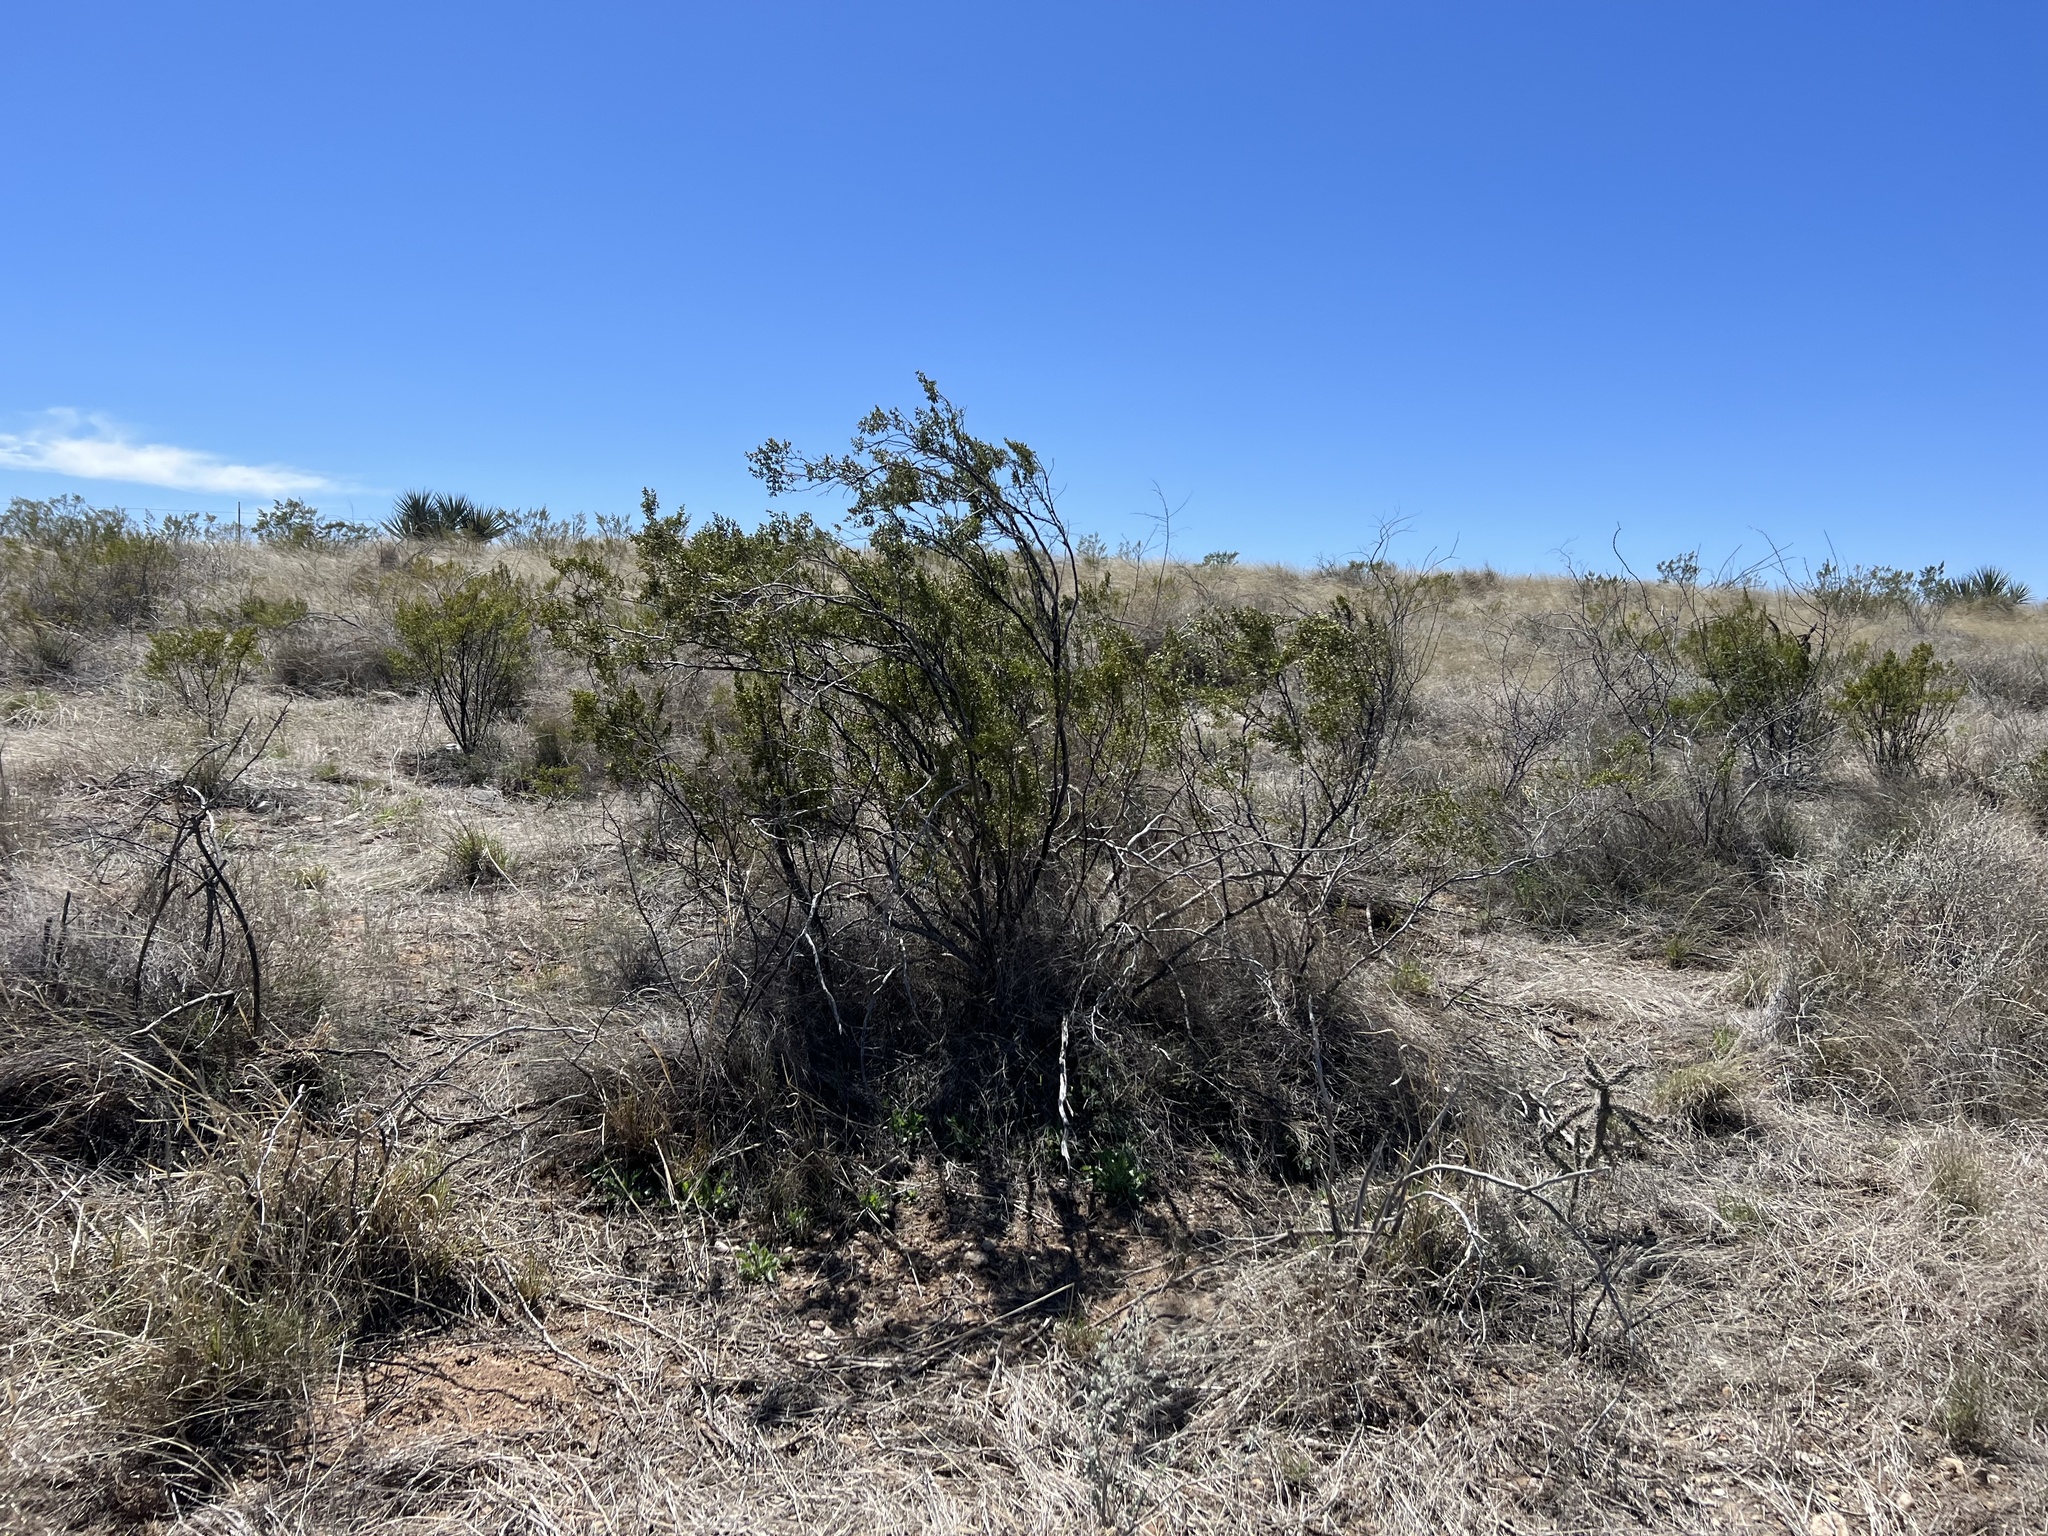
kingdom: Plantae
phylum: Tracheophyta
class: Magnoliopsida
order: Zygophyllales
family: Zygophyllaceae
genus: Larrea
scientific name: Larrea tridentata
